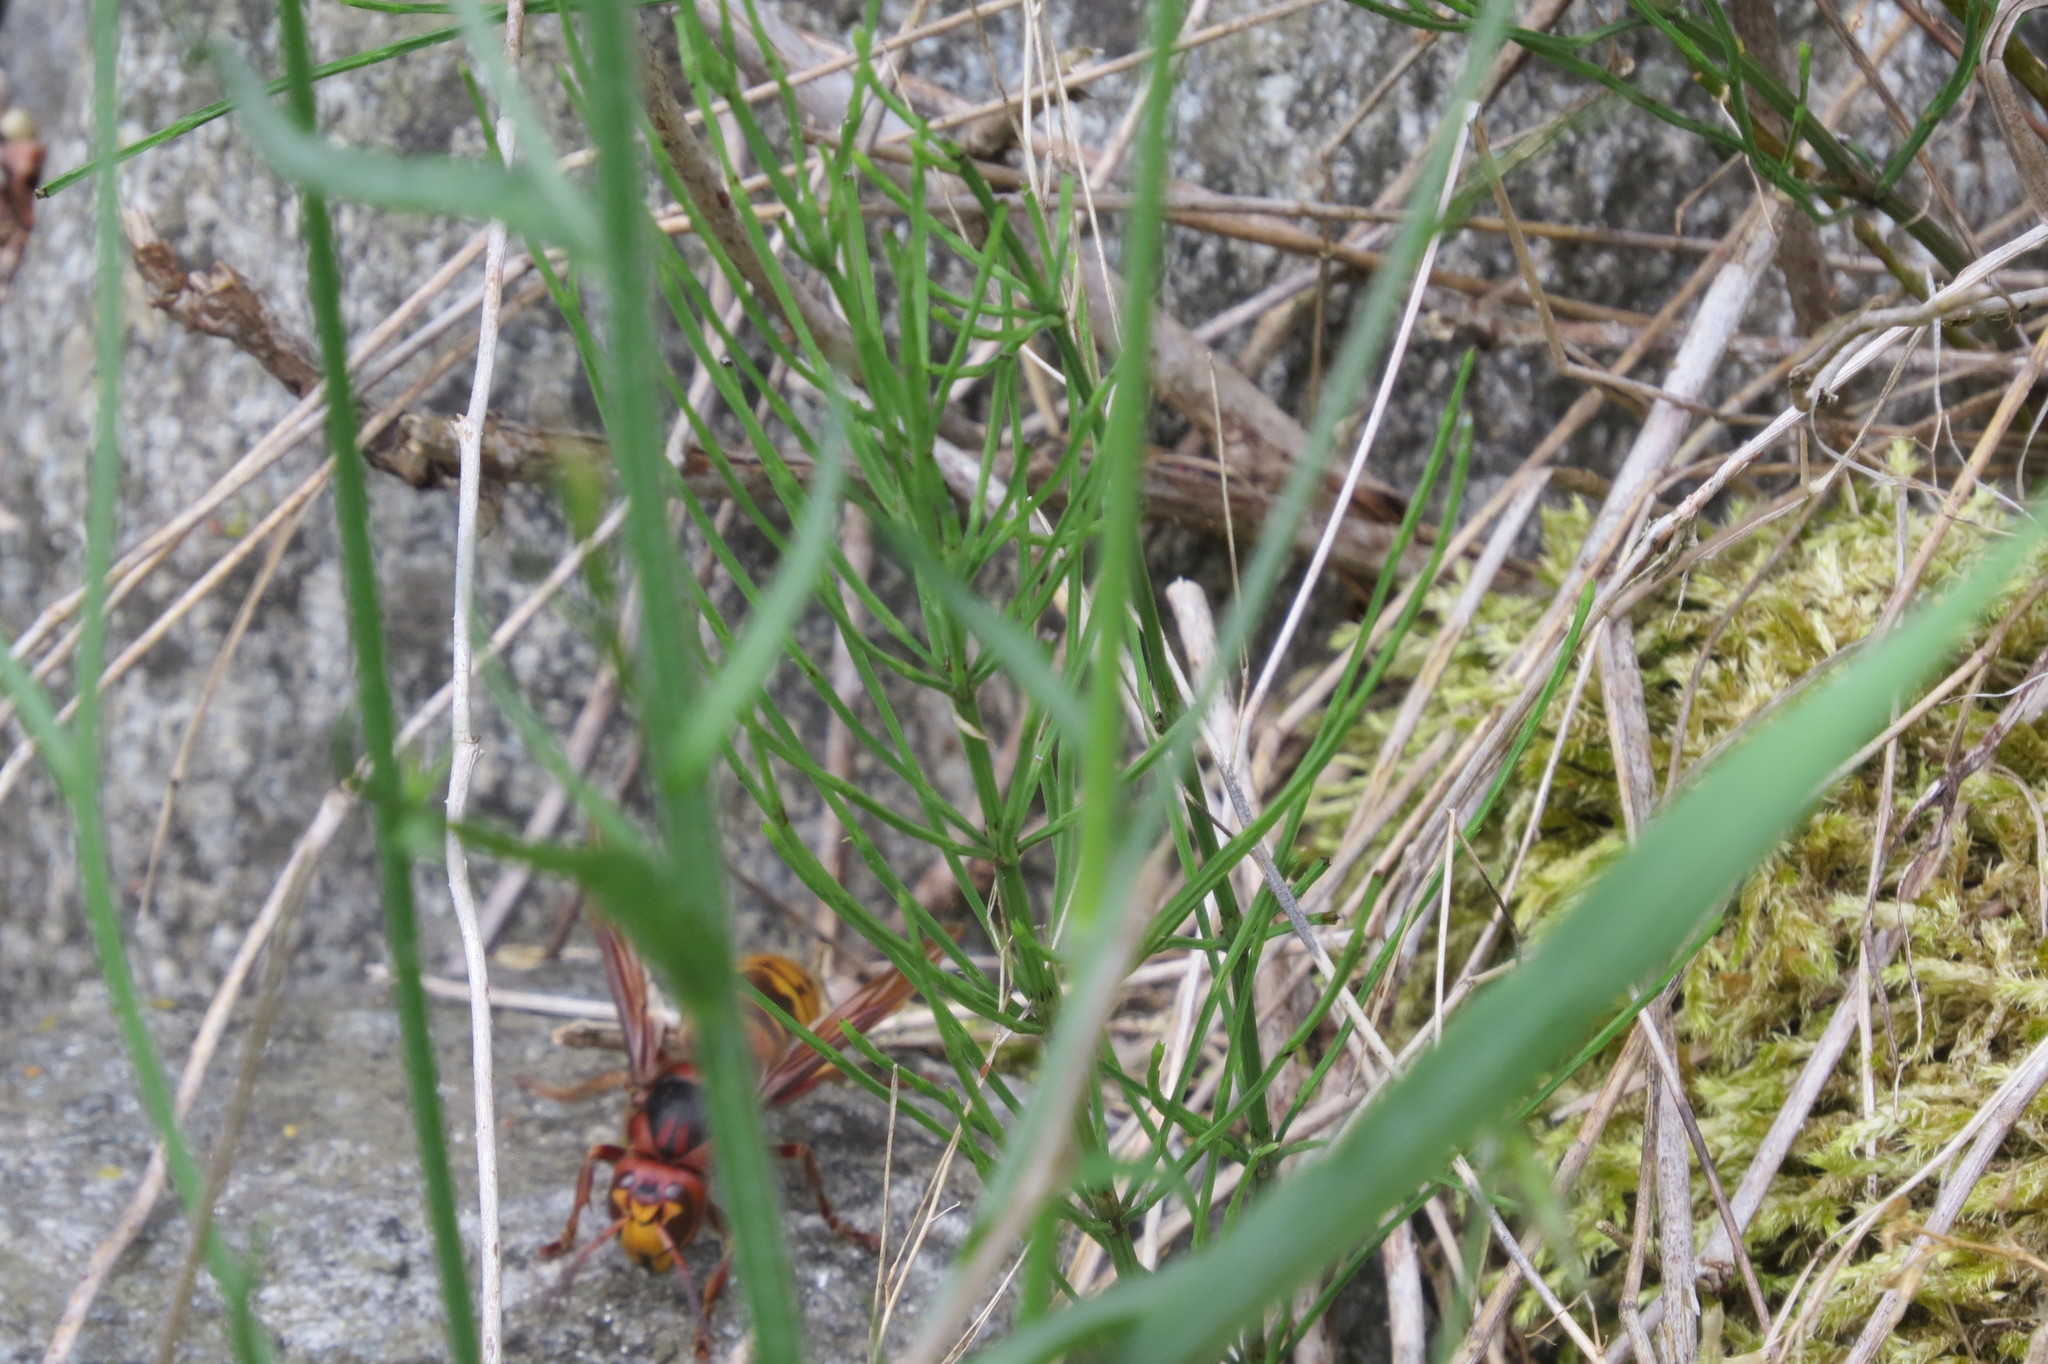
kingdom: Animalia
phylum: Arthropoda
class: Insecta
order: Hymenoptera
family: Vespidae
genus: Vespa
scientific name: Vespa crabro
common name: Hornet
